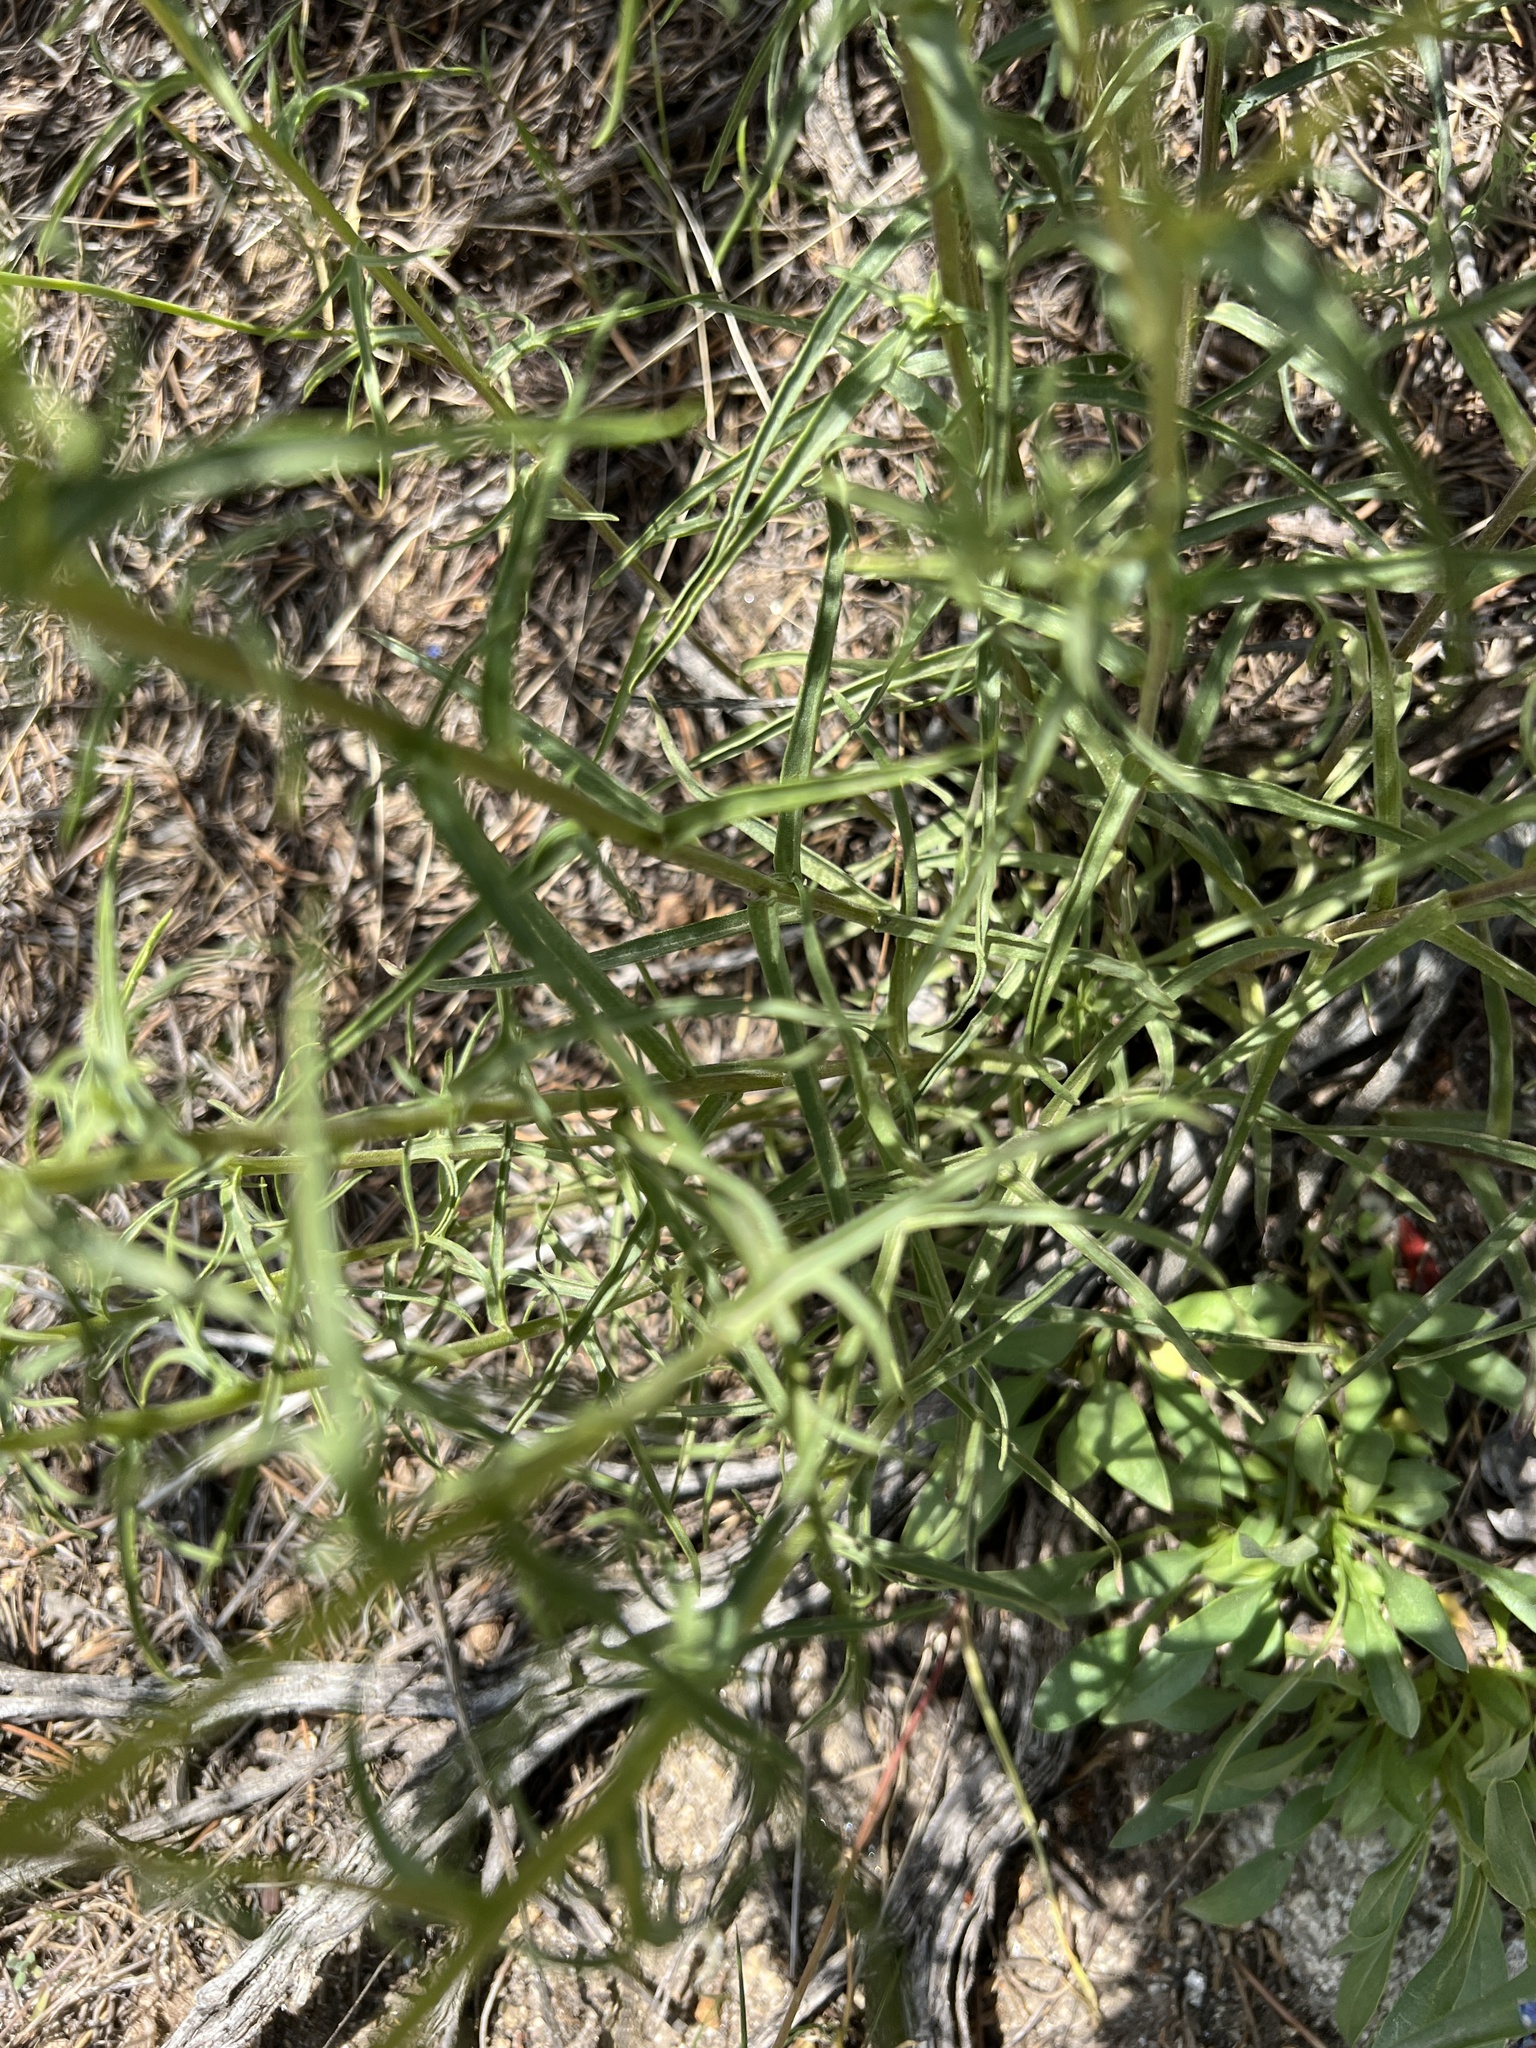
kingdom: Plantae
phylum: Tracheophyta
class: Magnoliopsida
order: Lamiales
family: Orobanchaceae
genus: Castilleja
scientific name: Castilleja flava
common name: Yellow paintbrush
